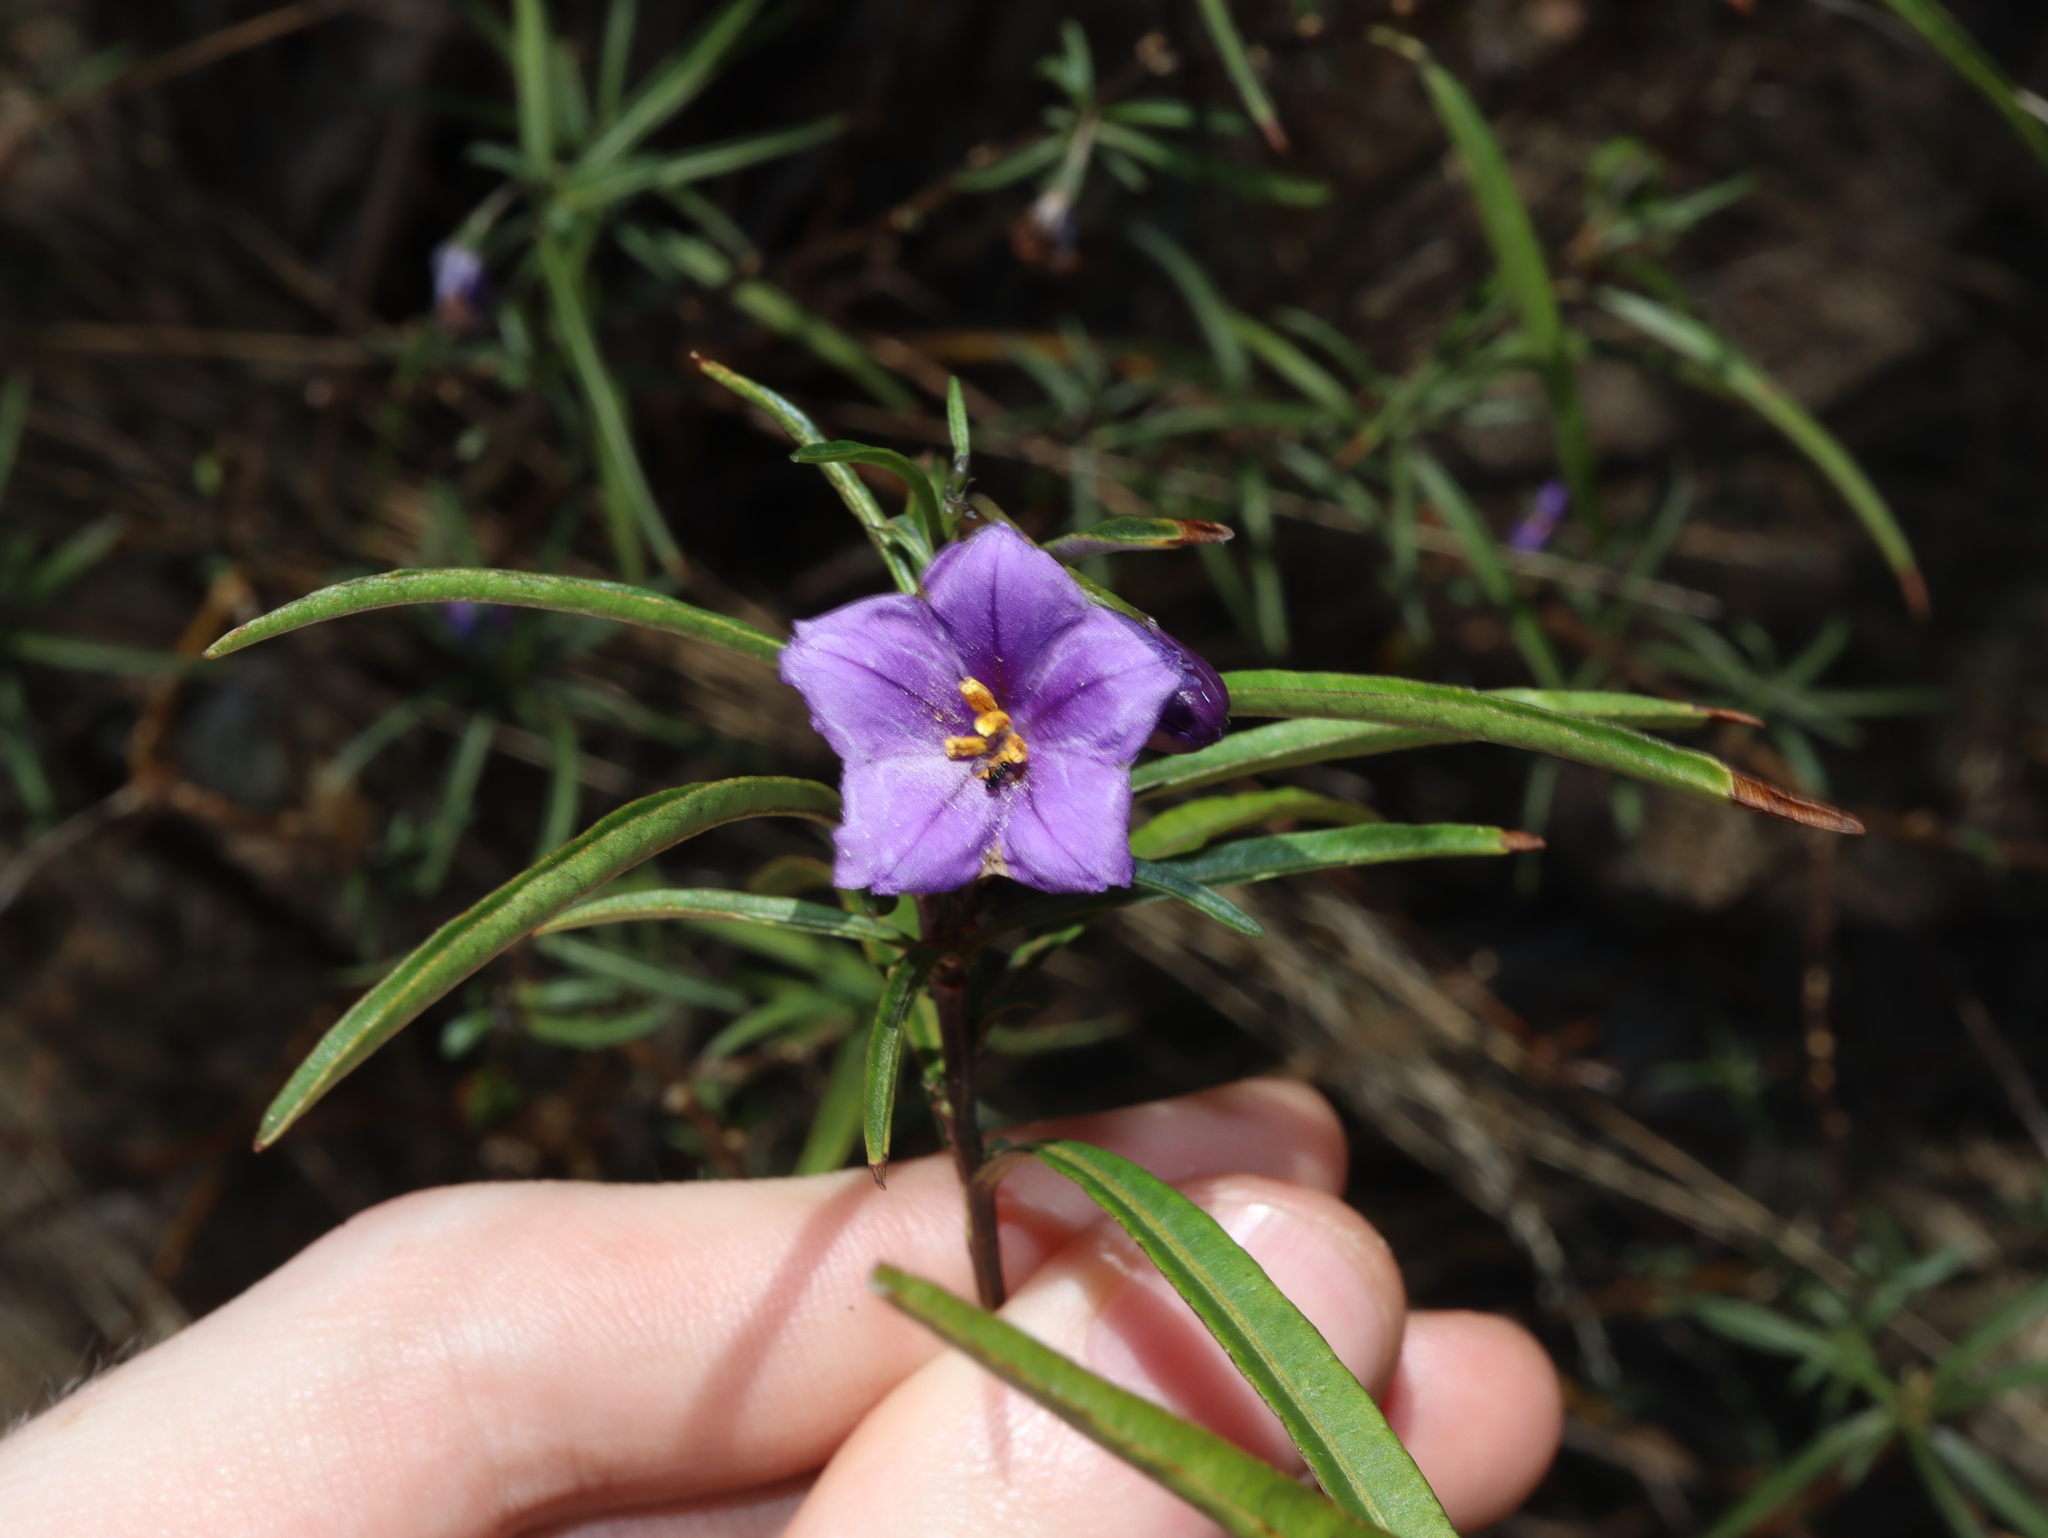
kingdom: Plantae
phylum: Tracheophyta
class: Magnoliopsida
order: Solanales
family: Solanaceae
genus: Solanum
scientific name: Solanum linearifolium
